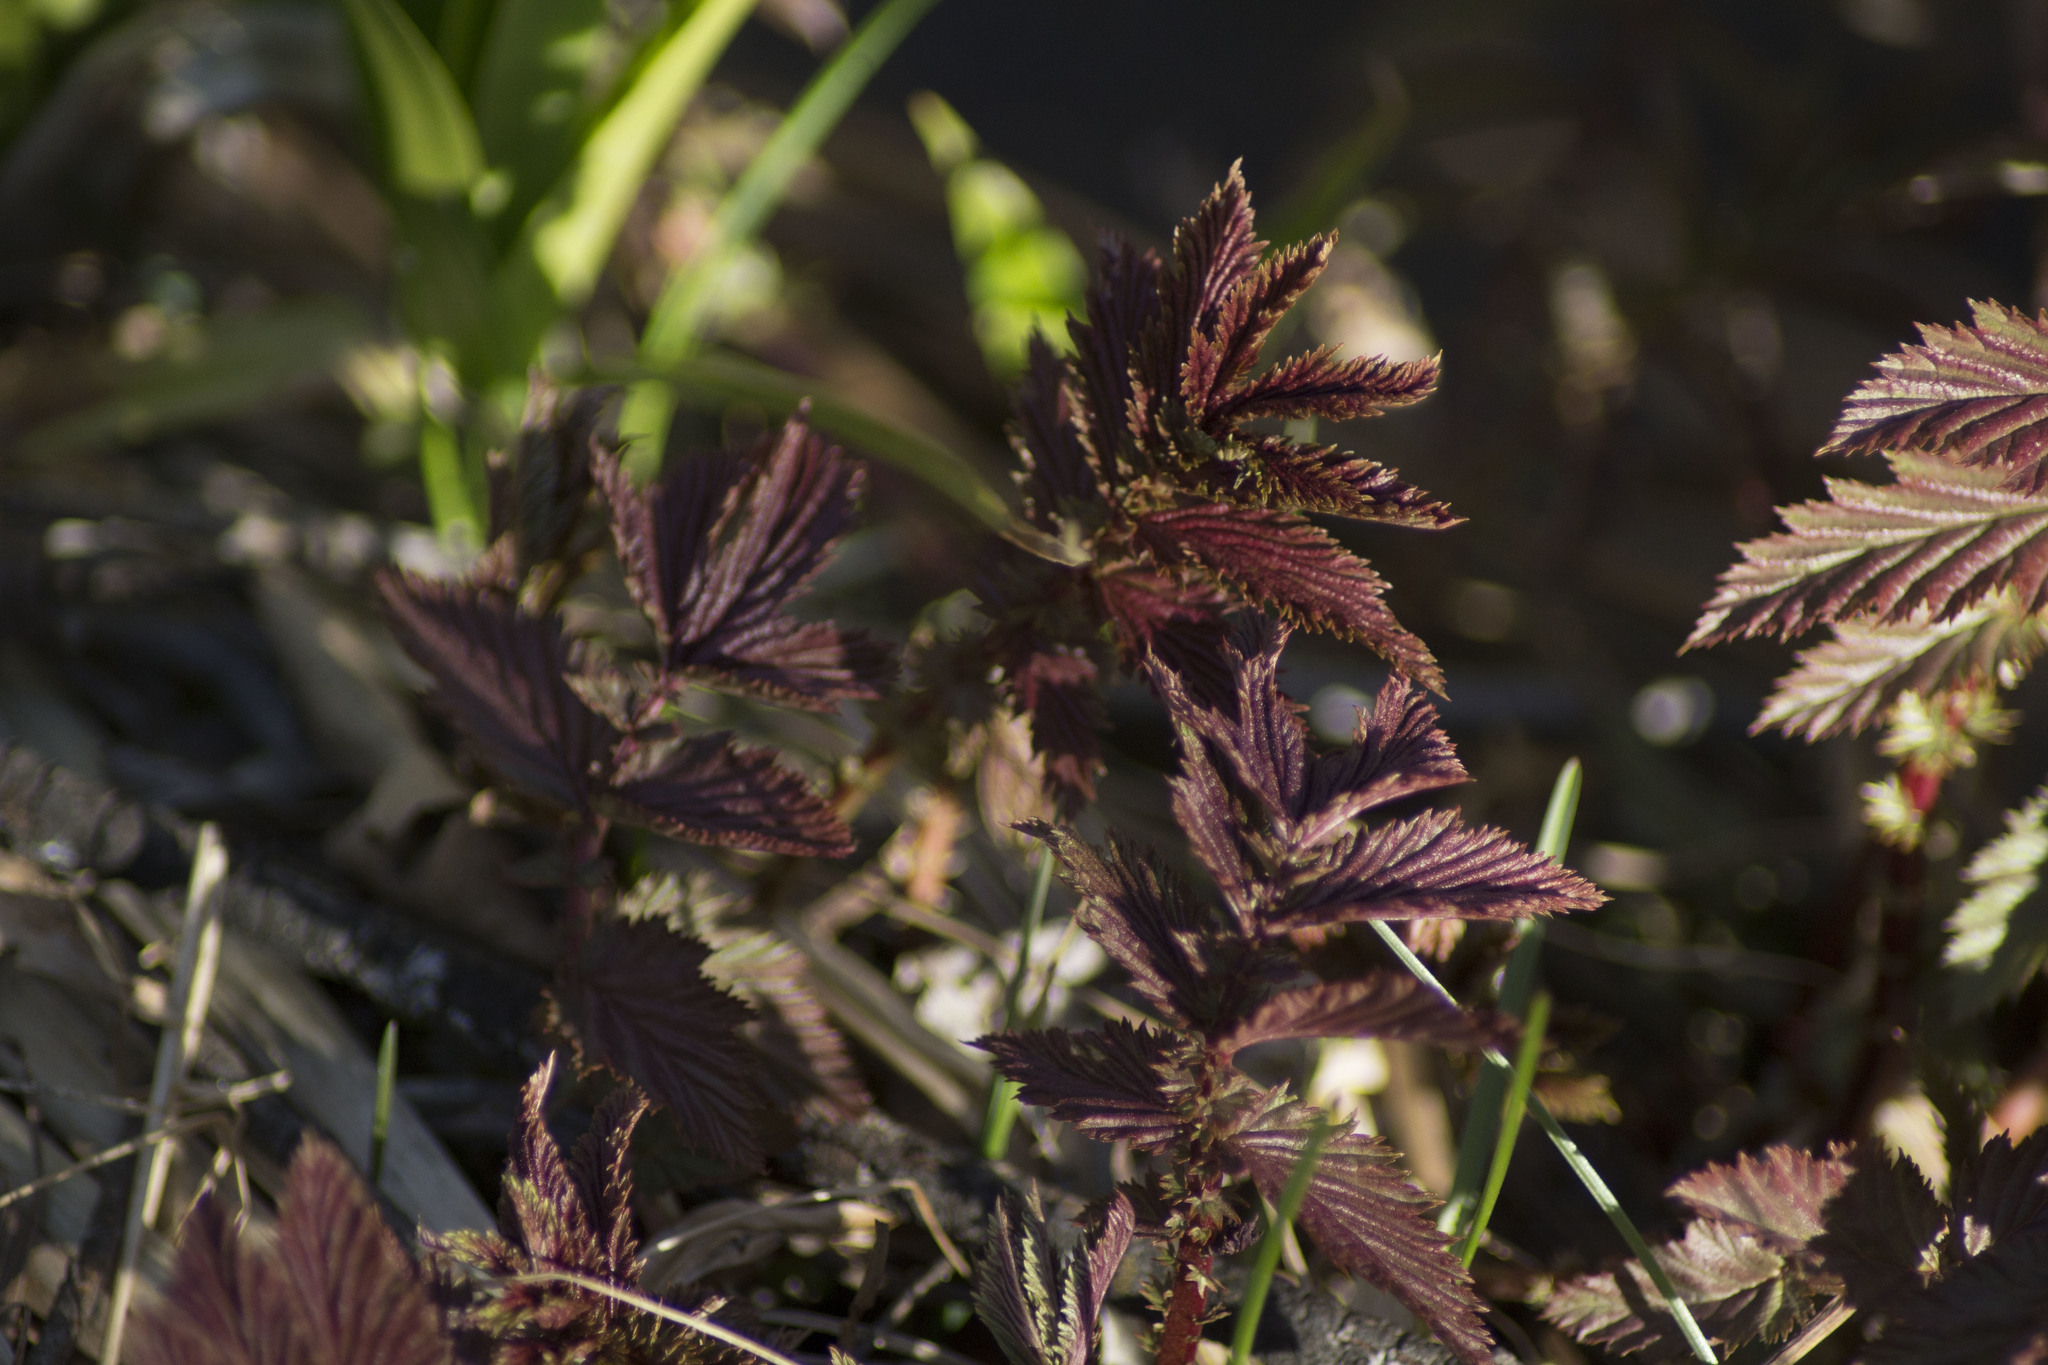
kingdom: Plantae
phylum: Tracheophyta
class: Magnoliopsida
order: Rosales
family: Rosaceae
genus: Filipendula
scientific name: Filipendula ulmaria
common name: Meadowsweet
